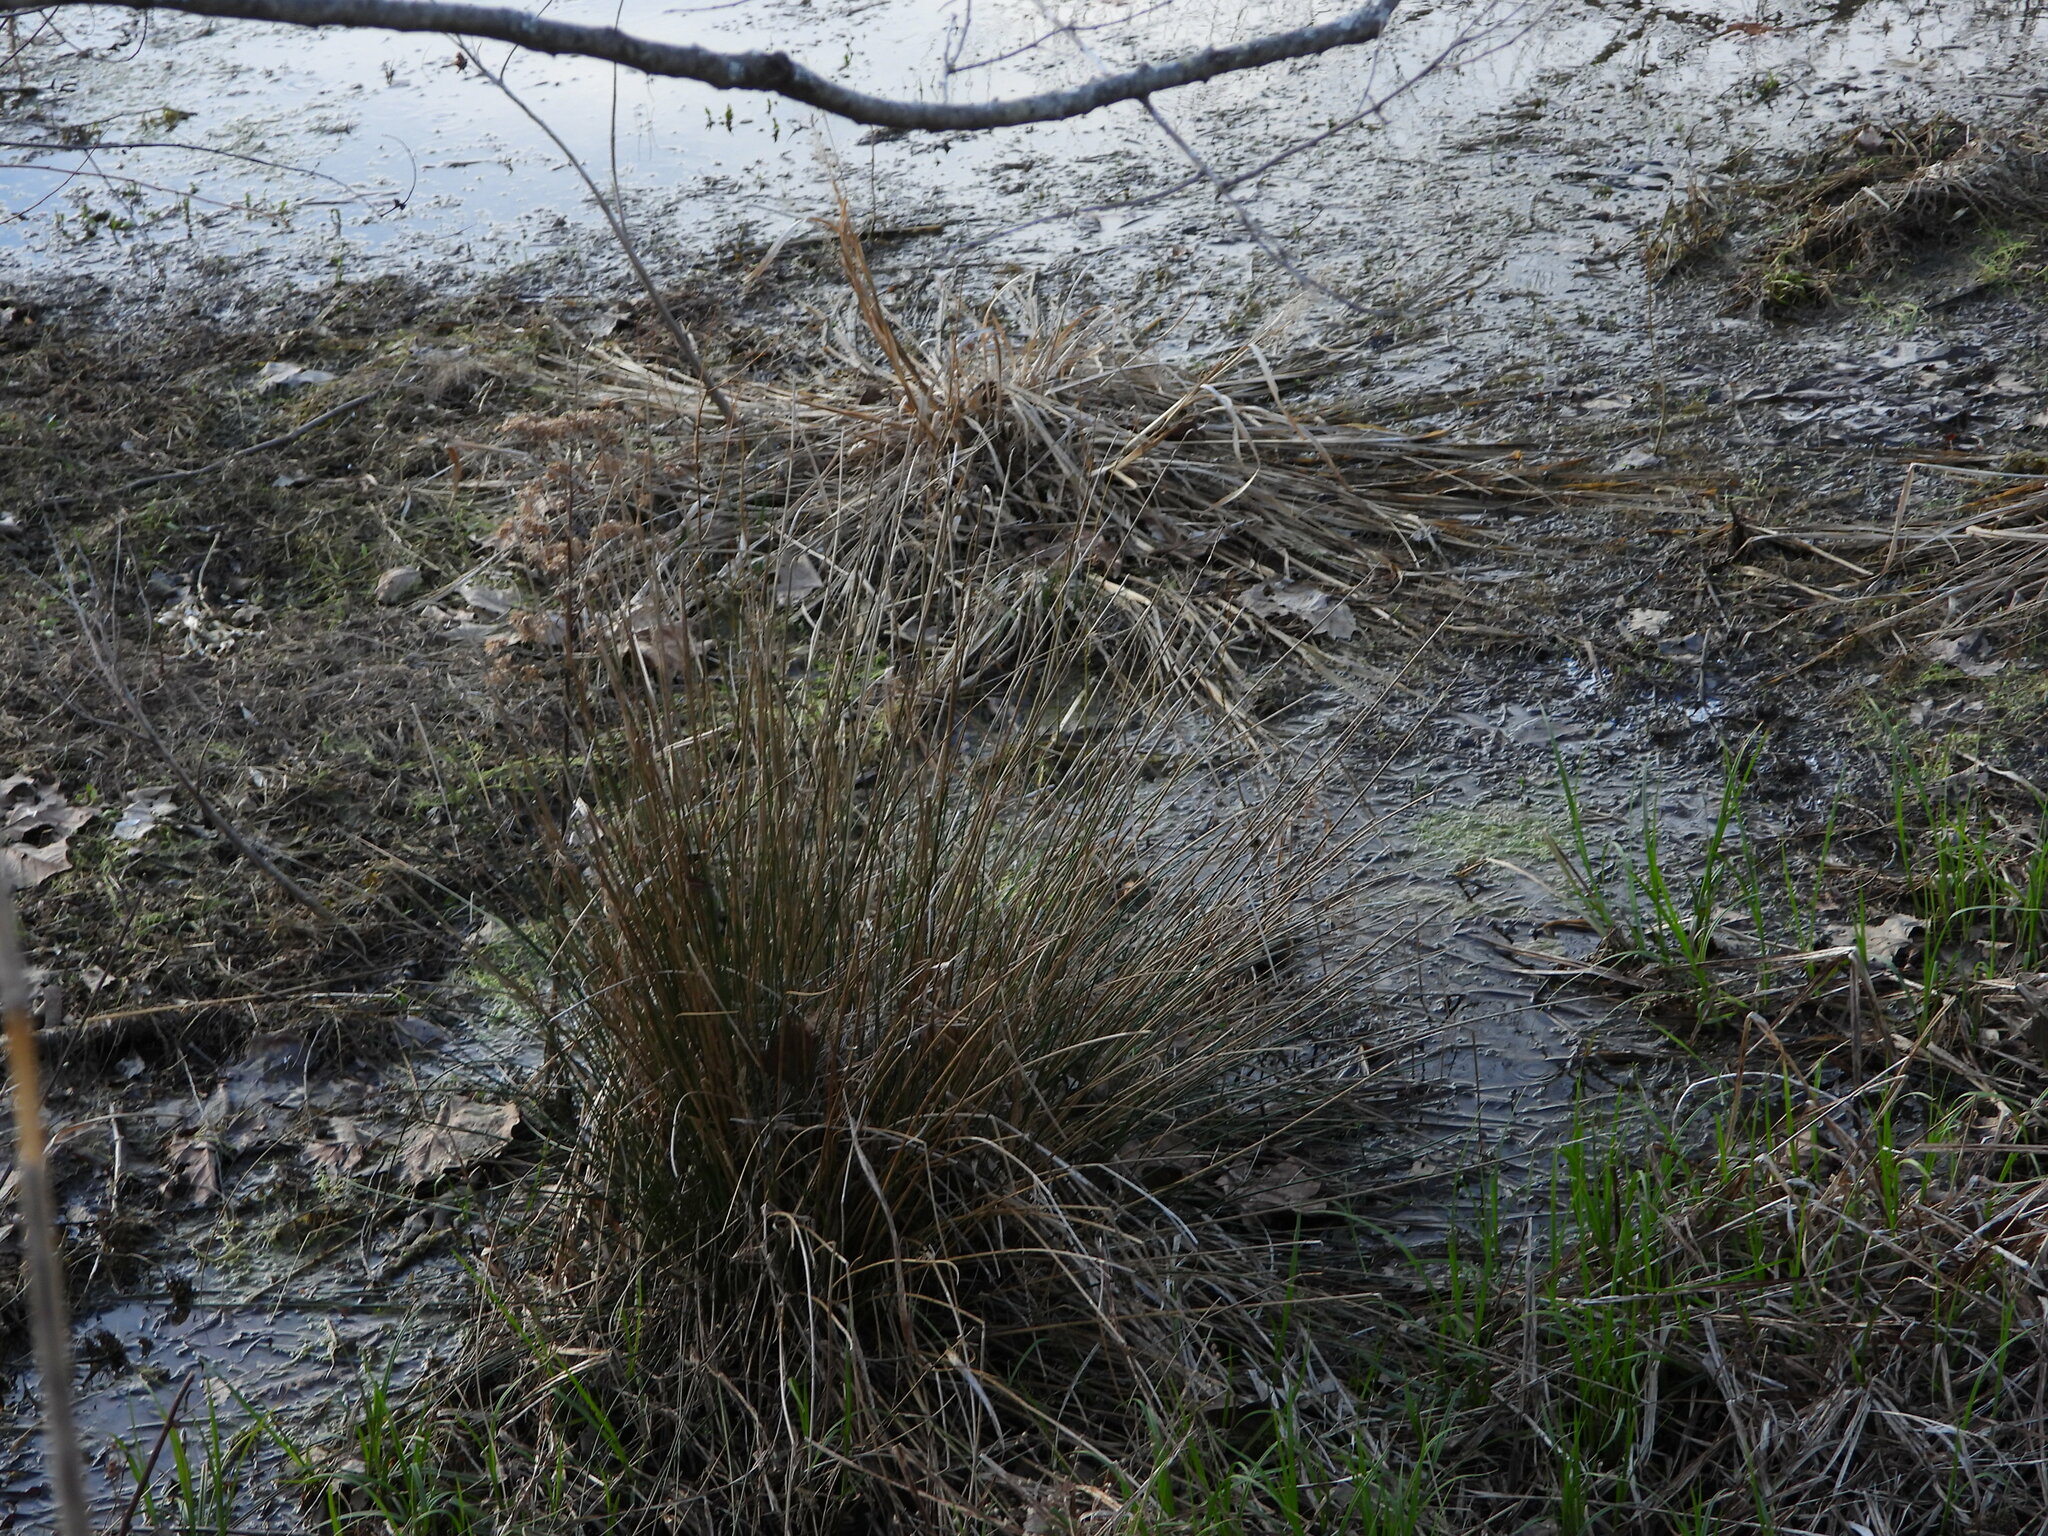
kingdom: Plantae
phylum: Tracheophyta
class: Liliopsida
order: Poales
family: Juncaceae
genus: Juncus
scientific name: Juncus effusus
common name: Soft rush
